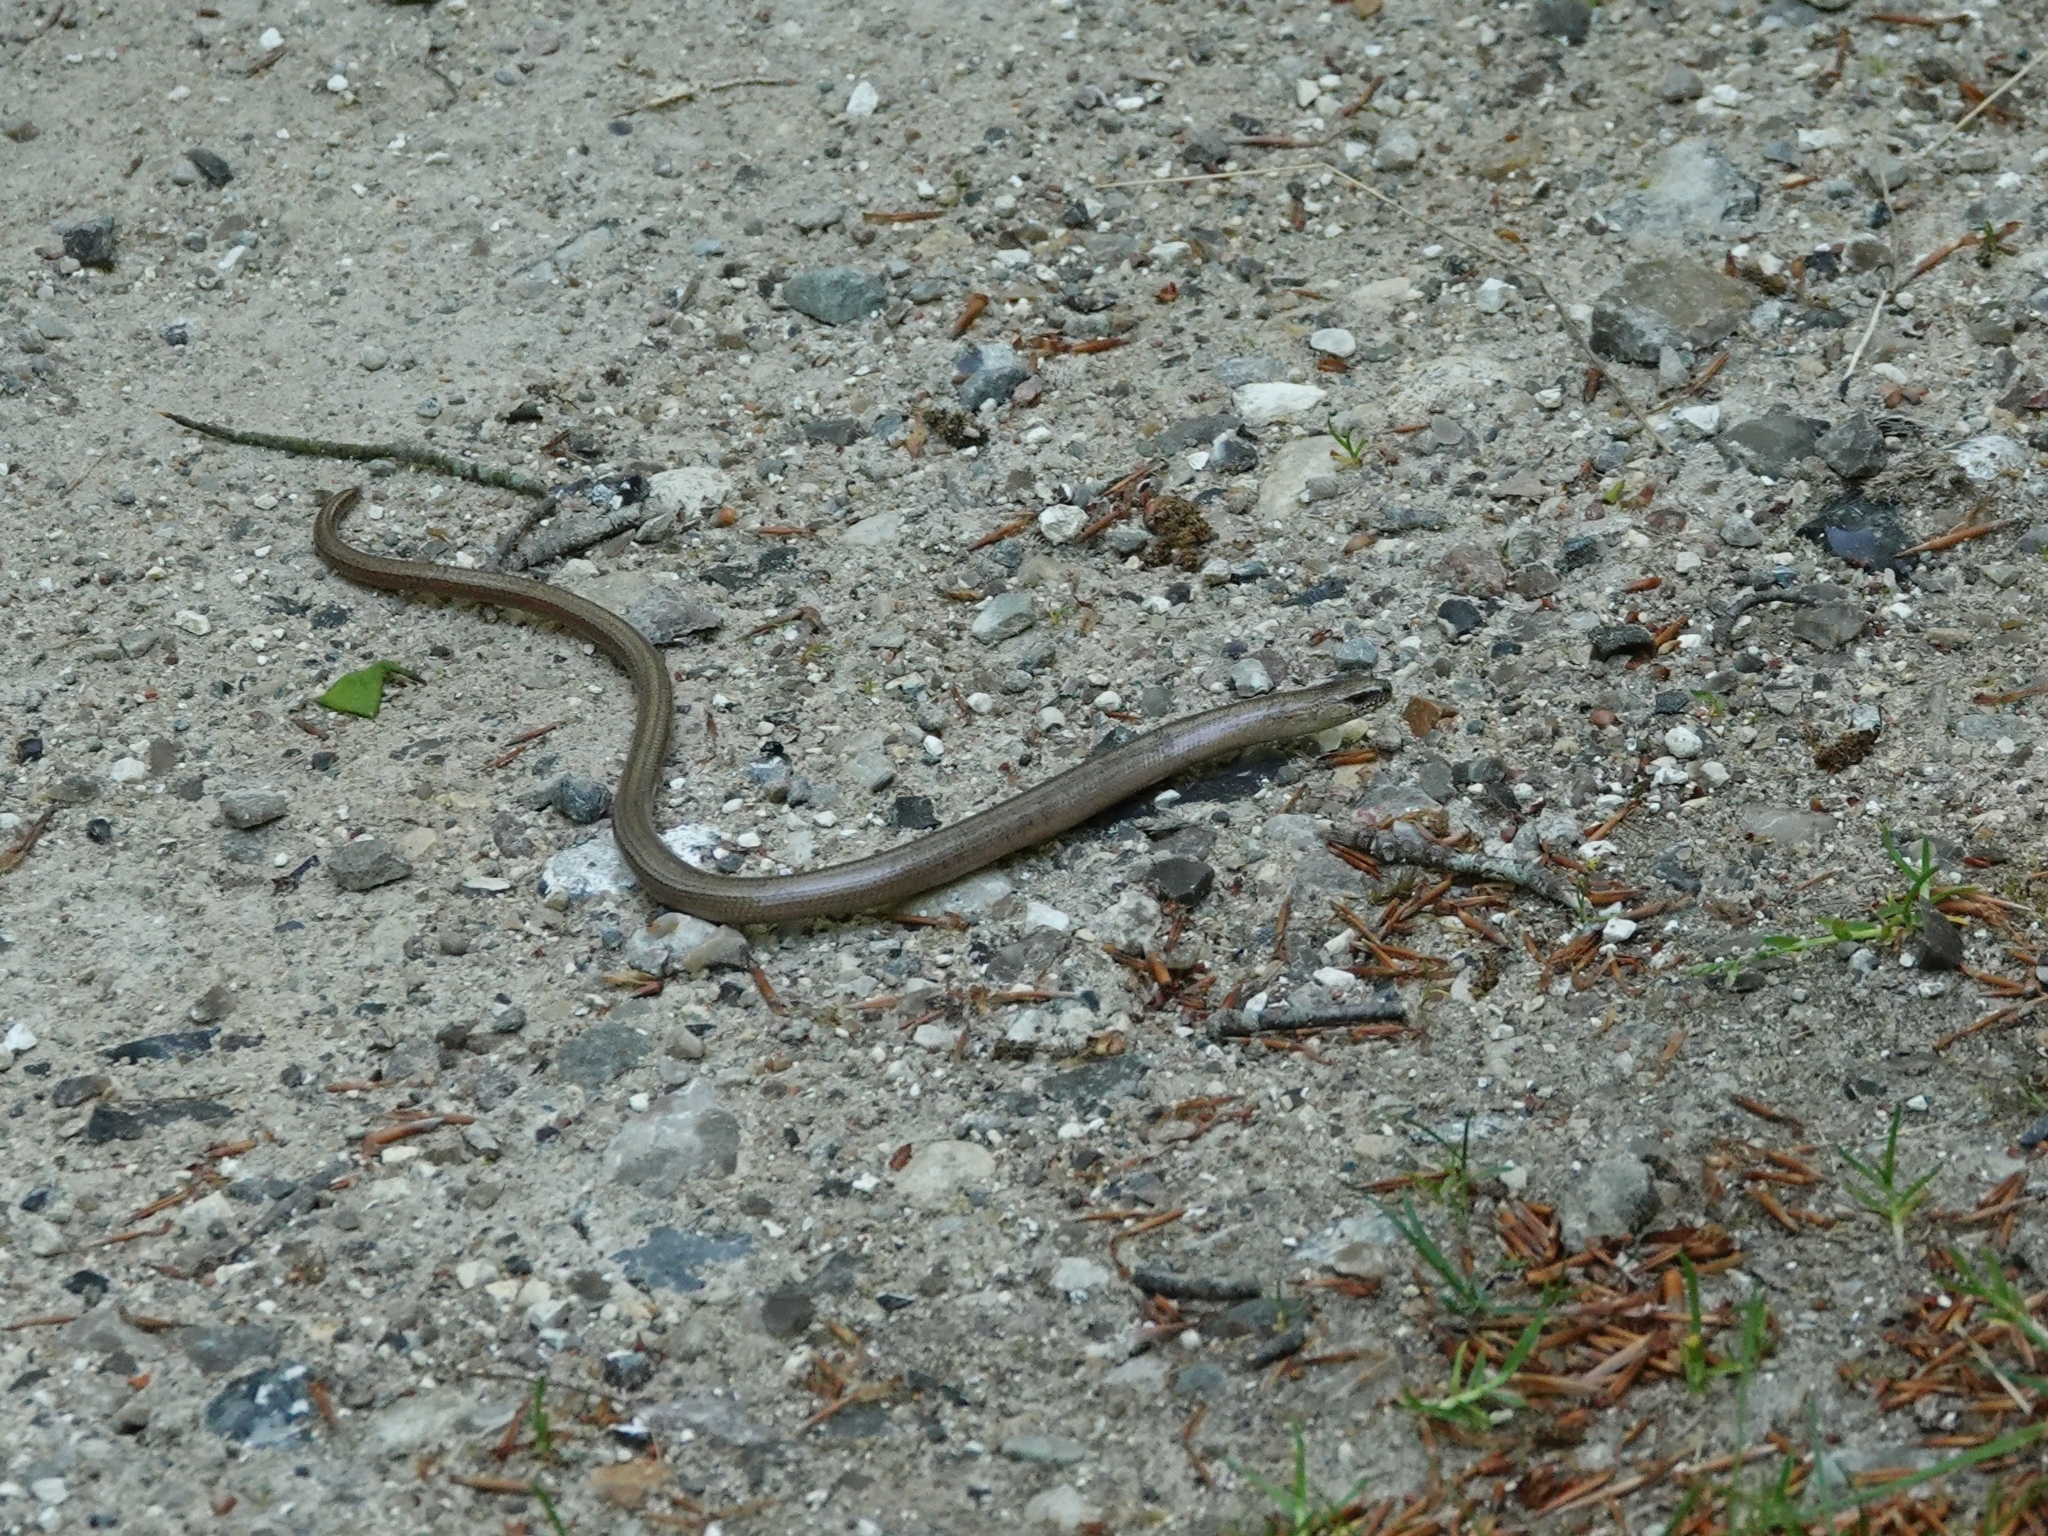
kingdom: Animalia
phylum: Chordata
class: Squamata
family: Anguidae
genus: Anguis
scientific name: Anguis fragilis
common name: Slow worm
